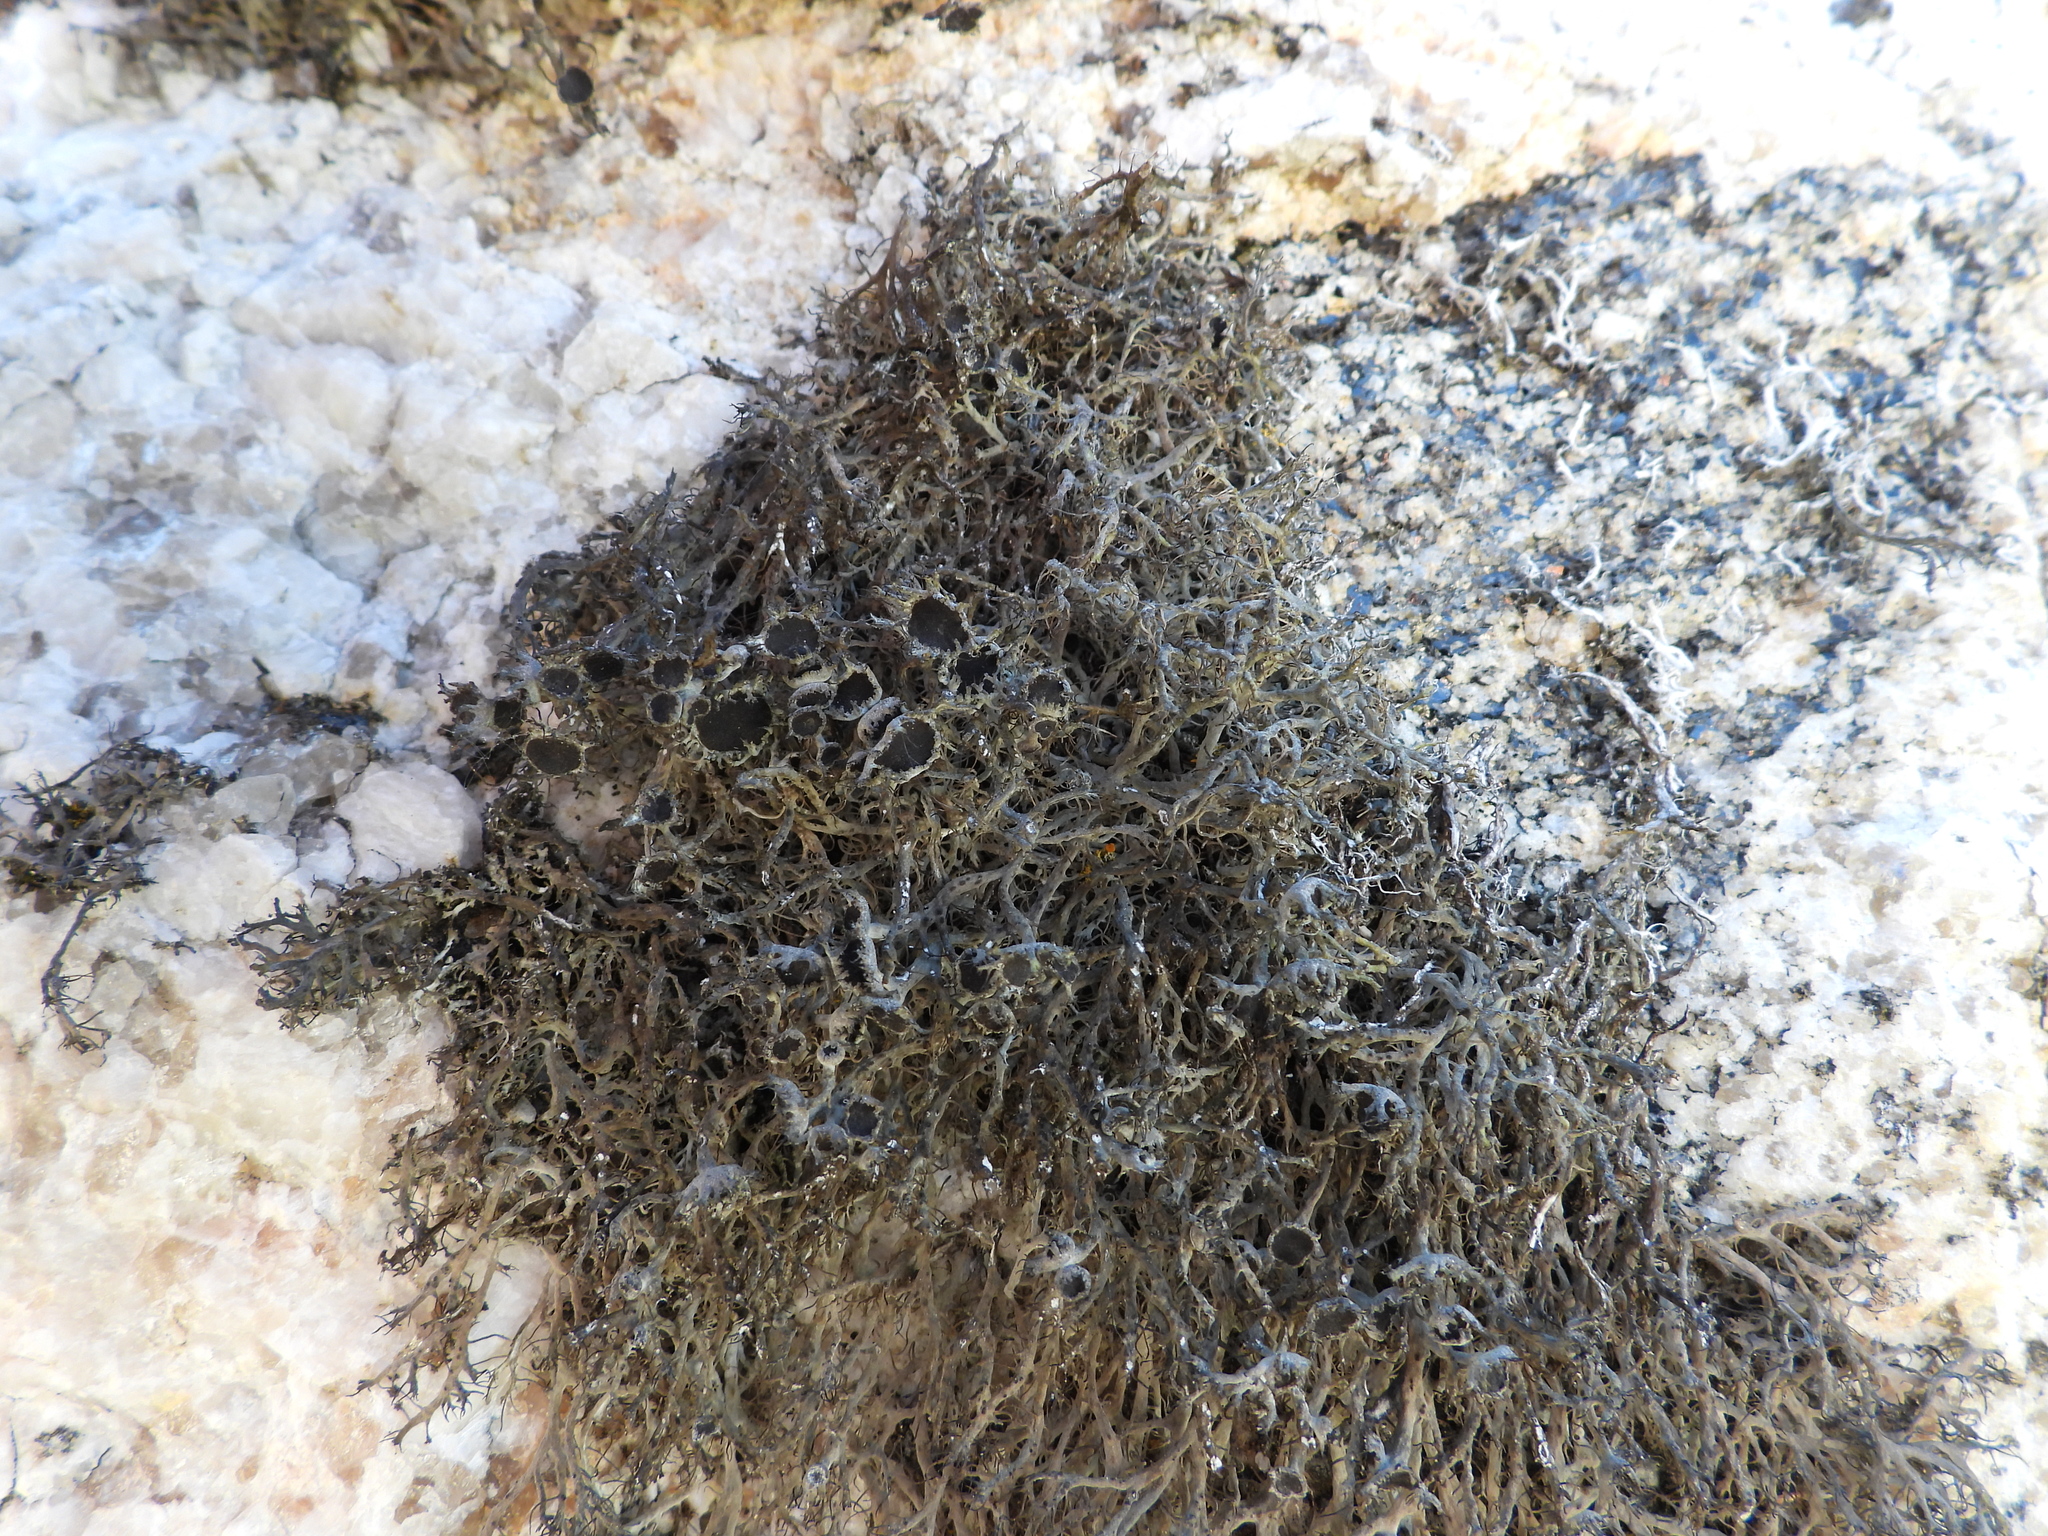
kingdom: Fungi
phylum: Ascomycota
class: Lecanoromycetes
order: Caliciales
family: Physciaceae
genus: Anaptychia
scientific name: Anaptychia ciliaris
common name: Great ciliated lichen
